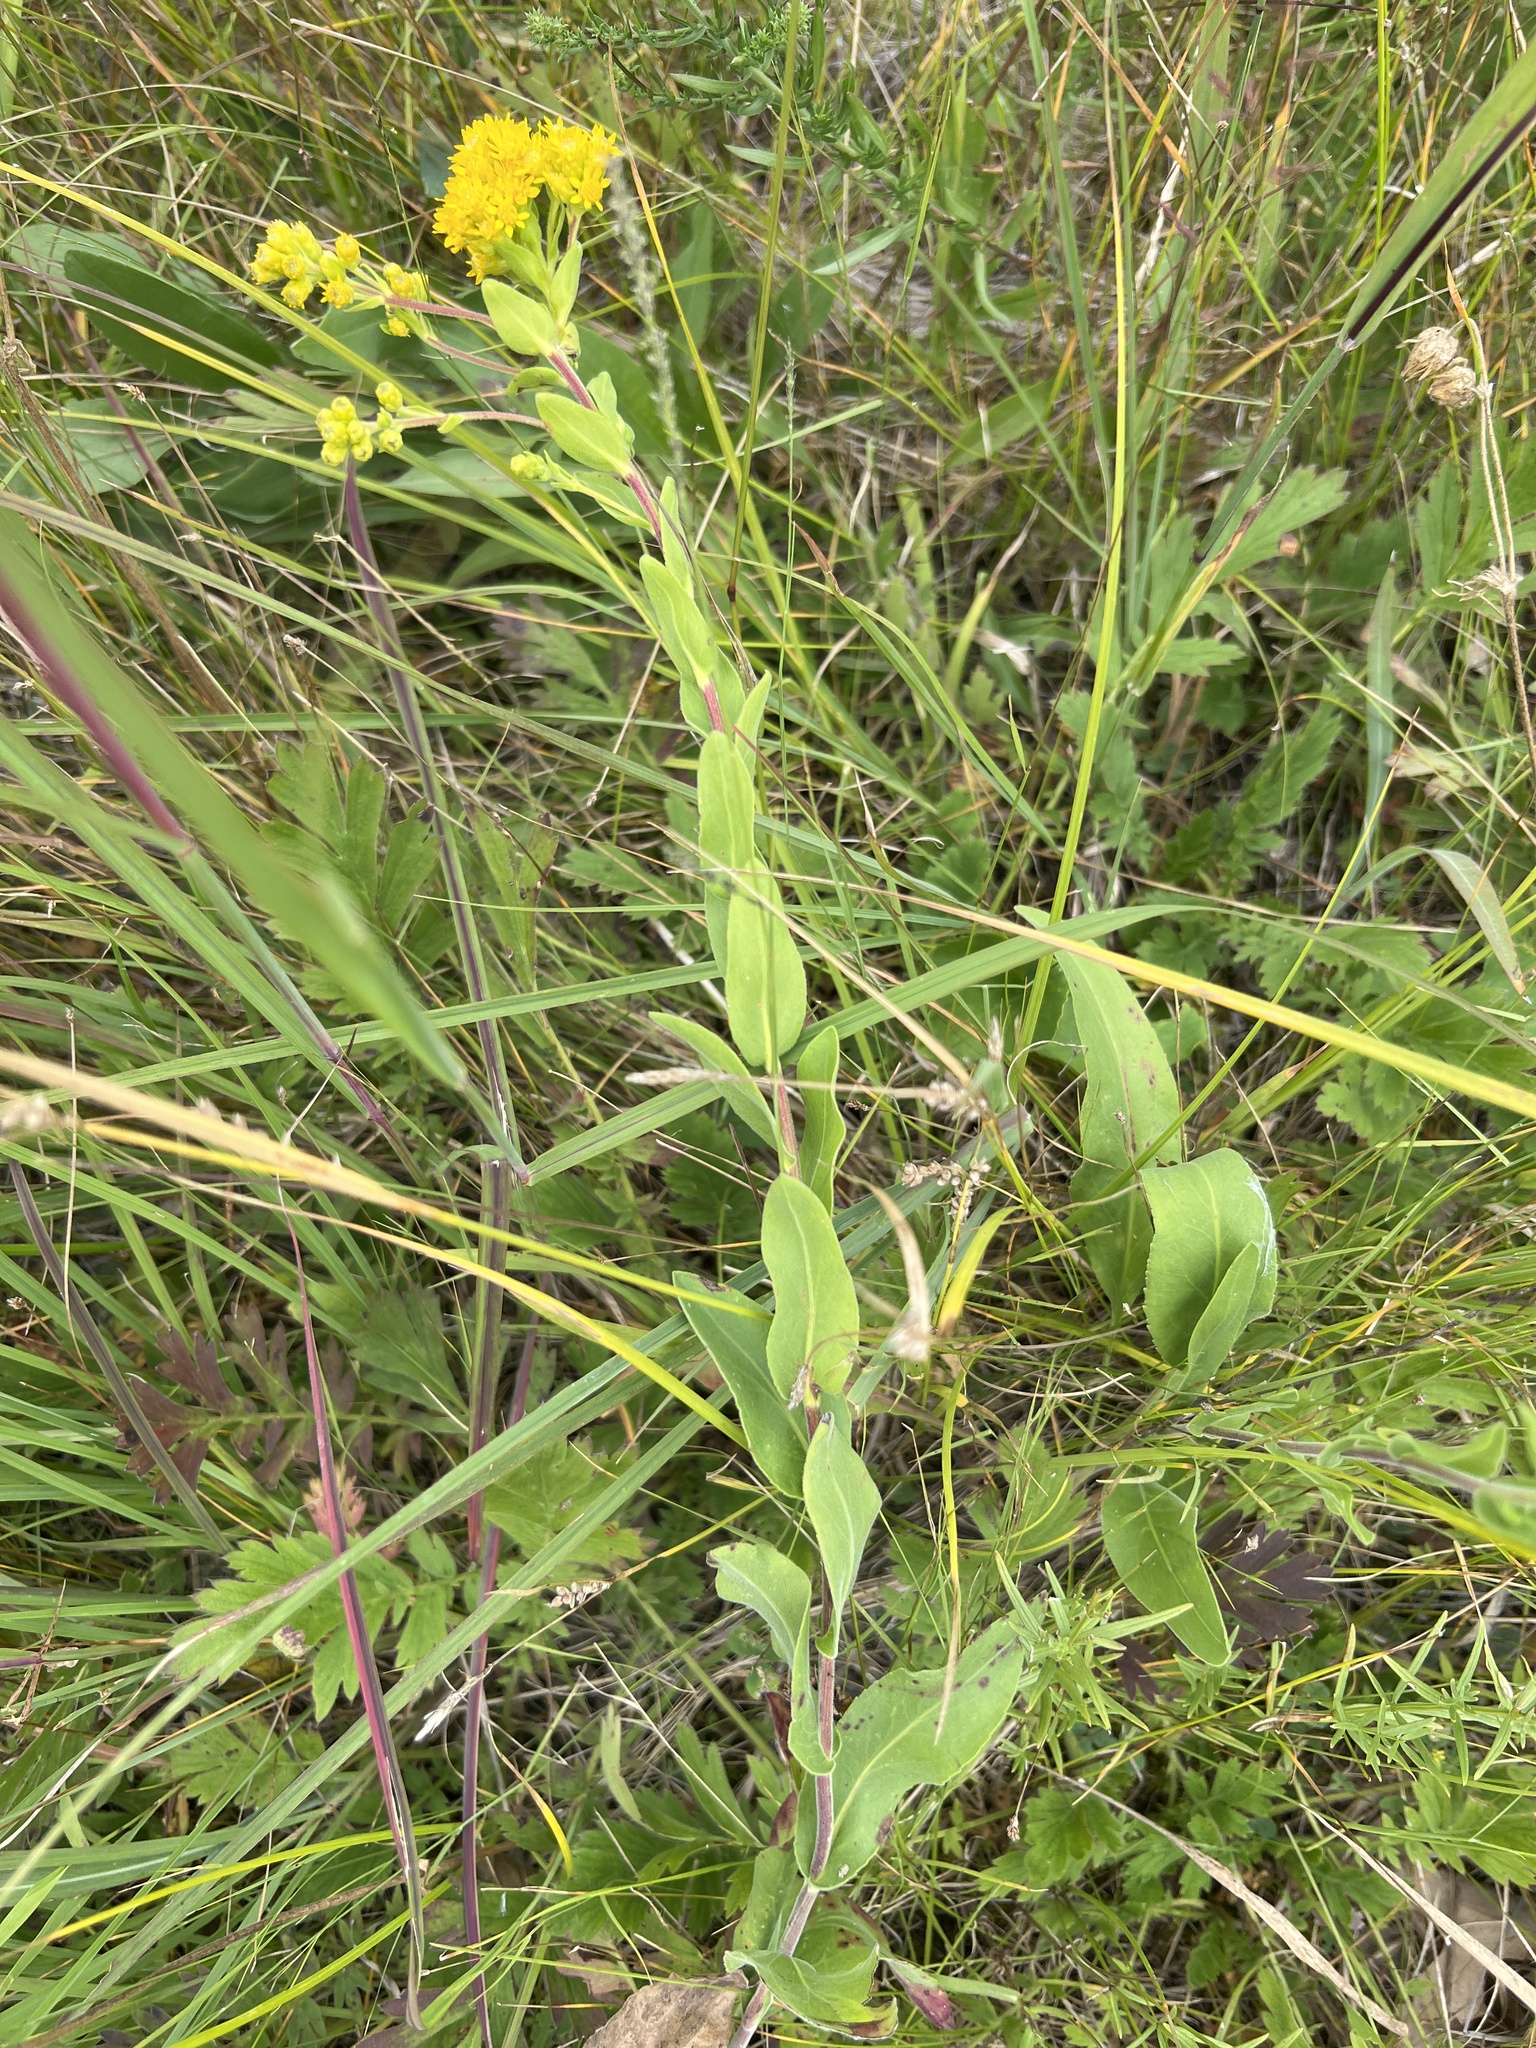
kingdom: Plantae
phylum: Tracheophyta
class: Magnoliopsida
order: Asterales
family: Asteraceae
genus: Solidago
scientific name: Solidago rigida
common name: Rigid goldenrod
